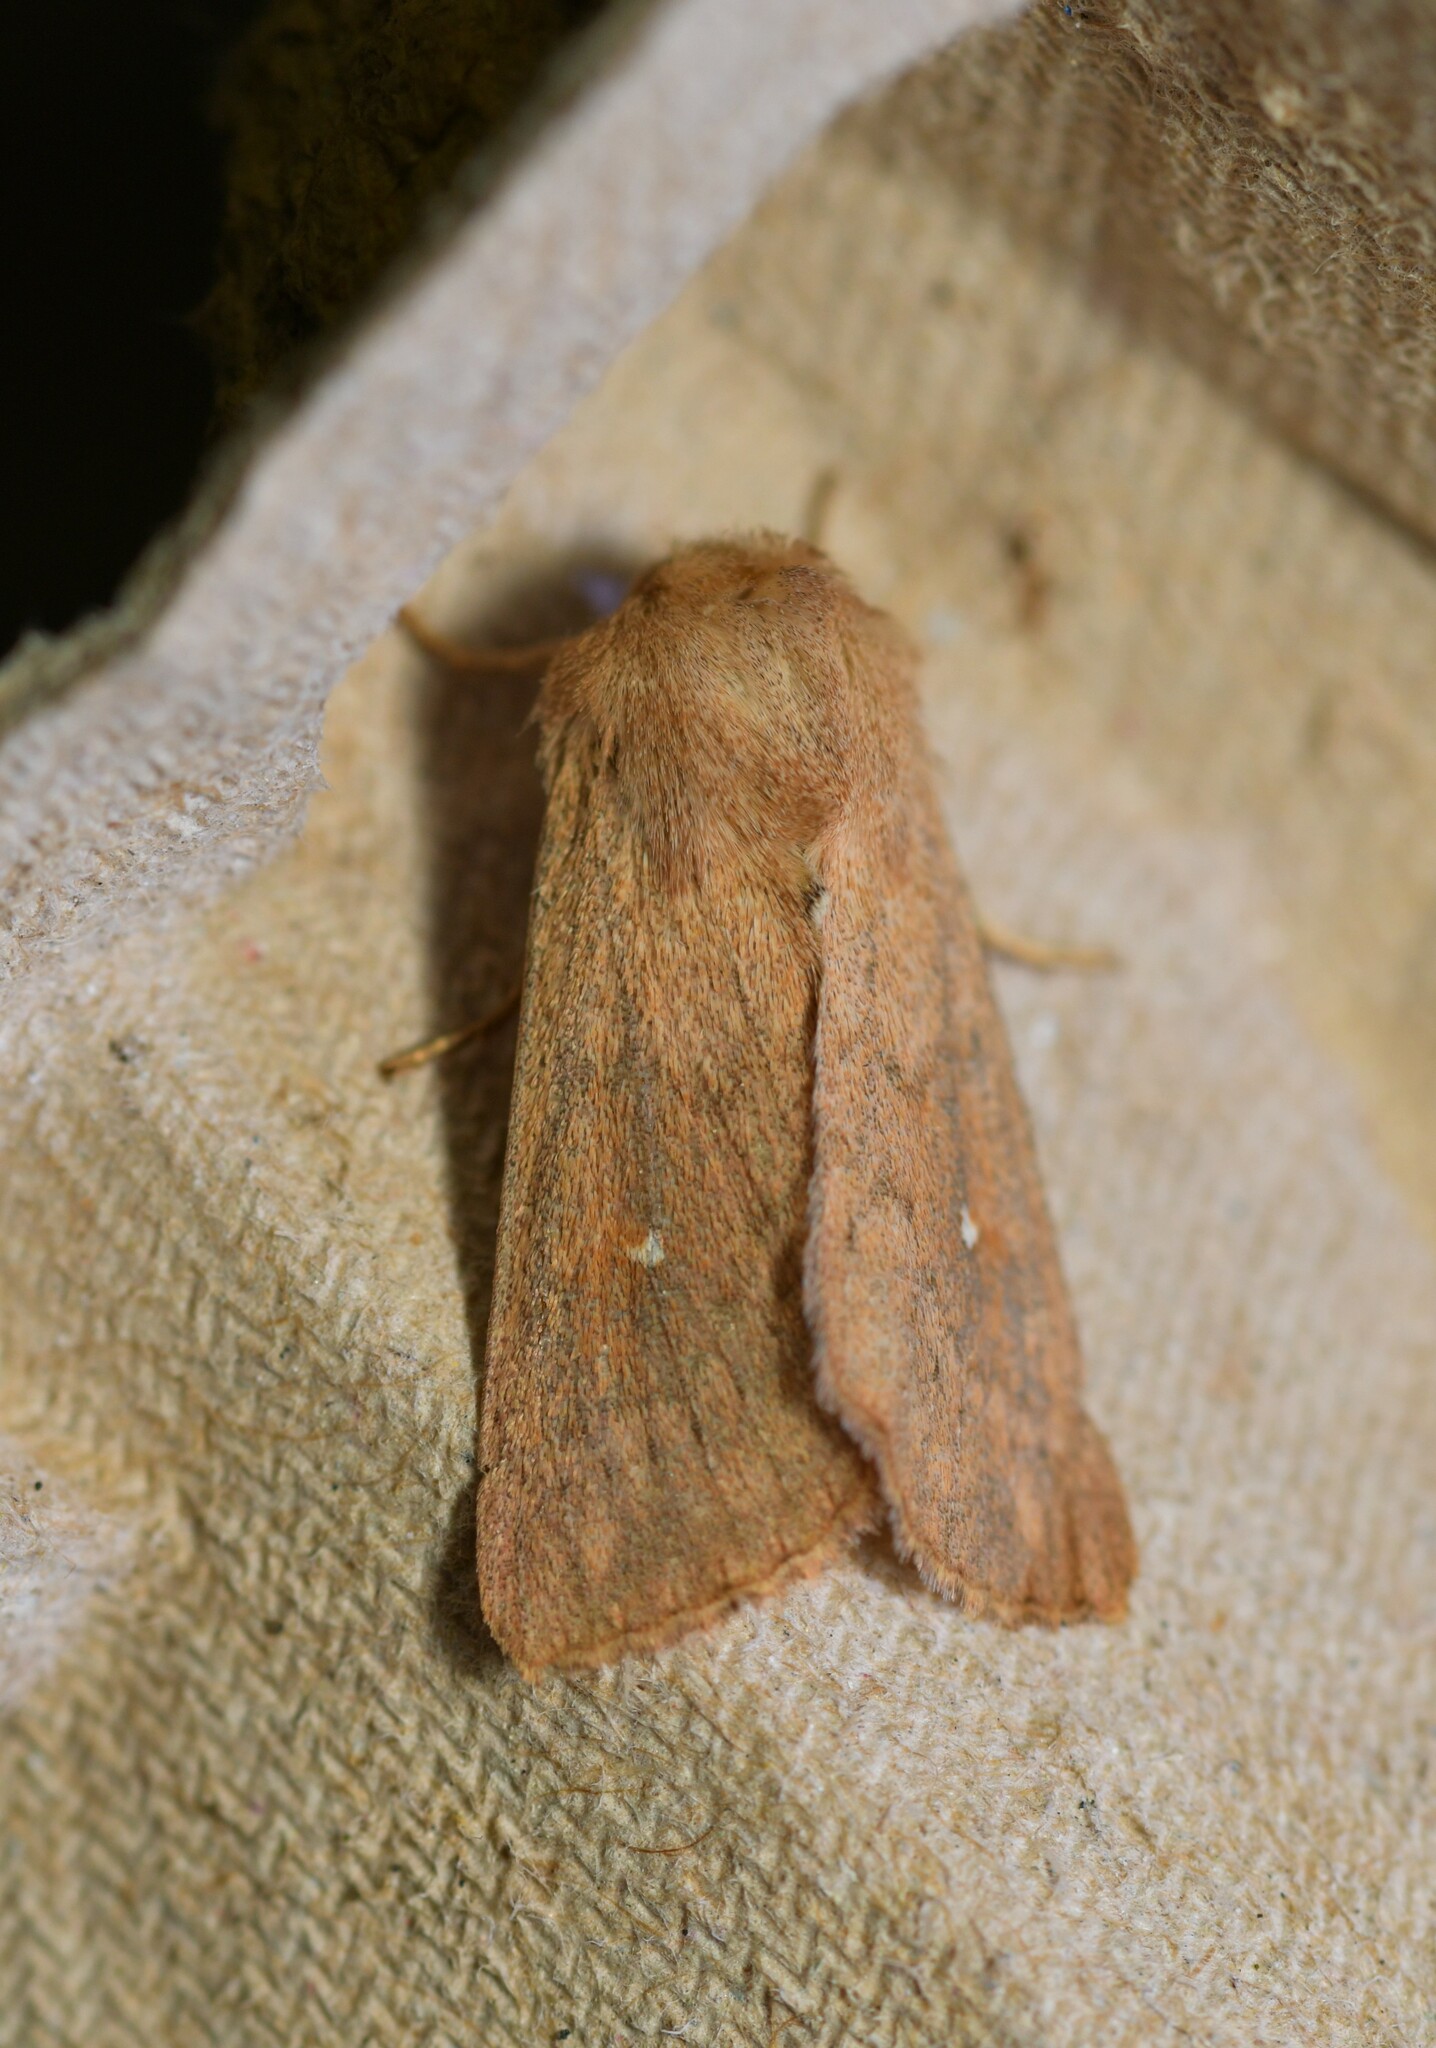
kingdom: Animalia
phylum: Arthropoda
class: Insecta
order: Lepidoptera
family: Noctuidae
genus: Mythimna
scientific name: Mythimna albipuncta
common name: White-point
